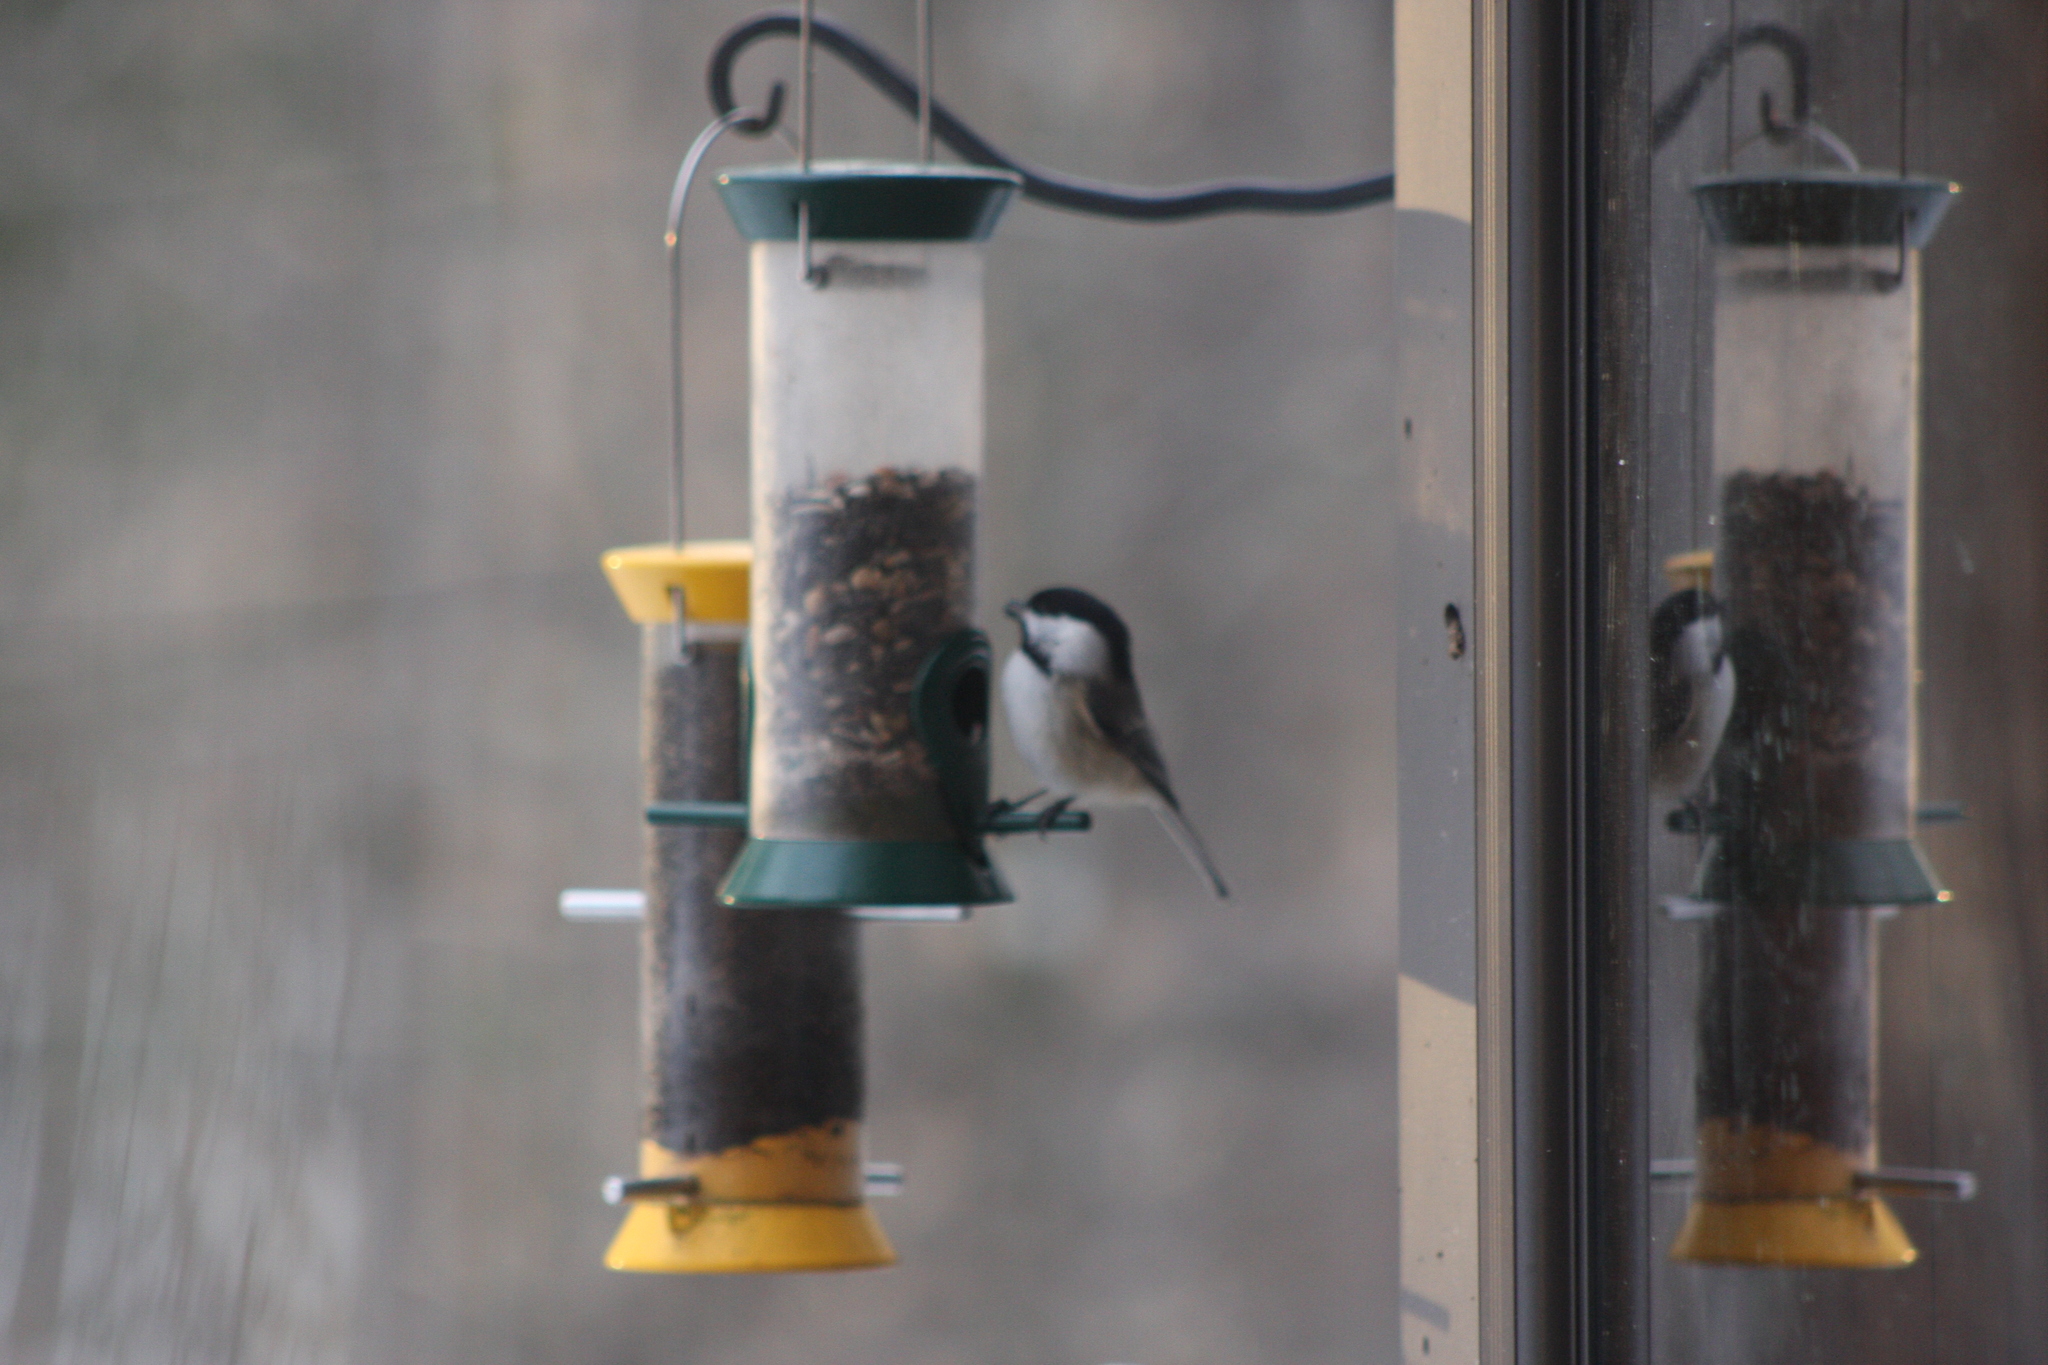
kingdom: Animalia
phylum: Chordata
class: Aves
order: Passeriformes
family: Paridae
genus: Poecile
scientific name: Poecile atricapillus
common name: Black-capped chickadee
